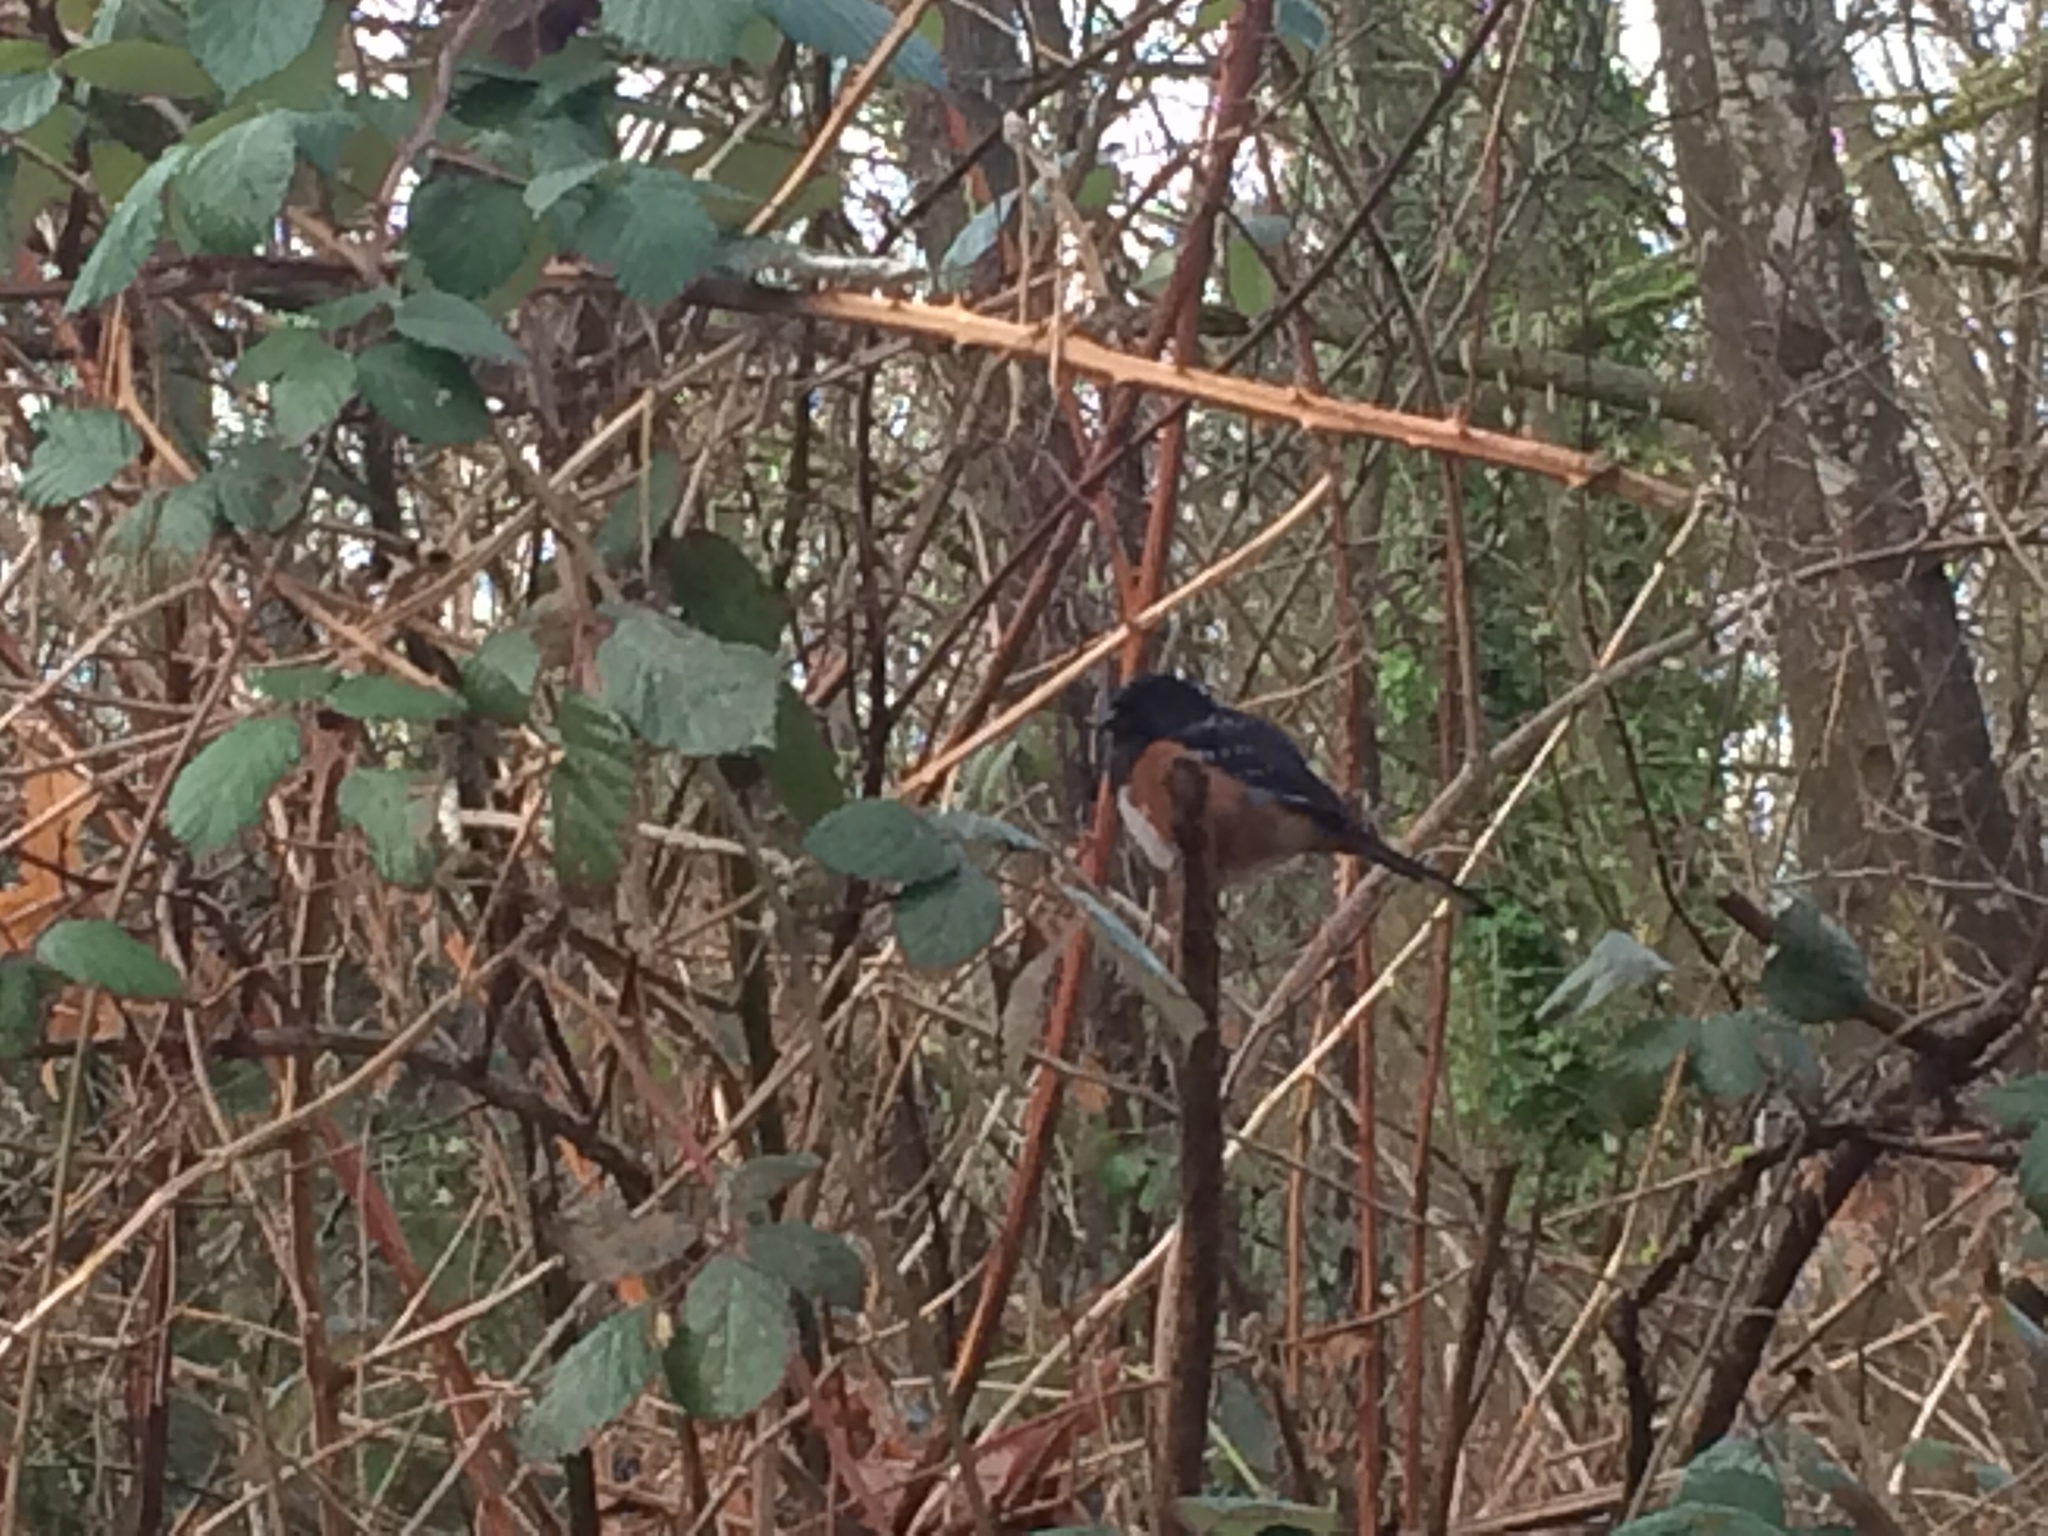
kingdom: Animalia
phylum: Chordata
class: Aves
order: Passeriformes
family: Passerellidae
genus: Pipilo
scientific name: Pipilo maculatus
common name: Spotted towhee
